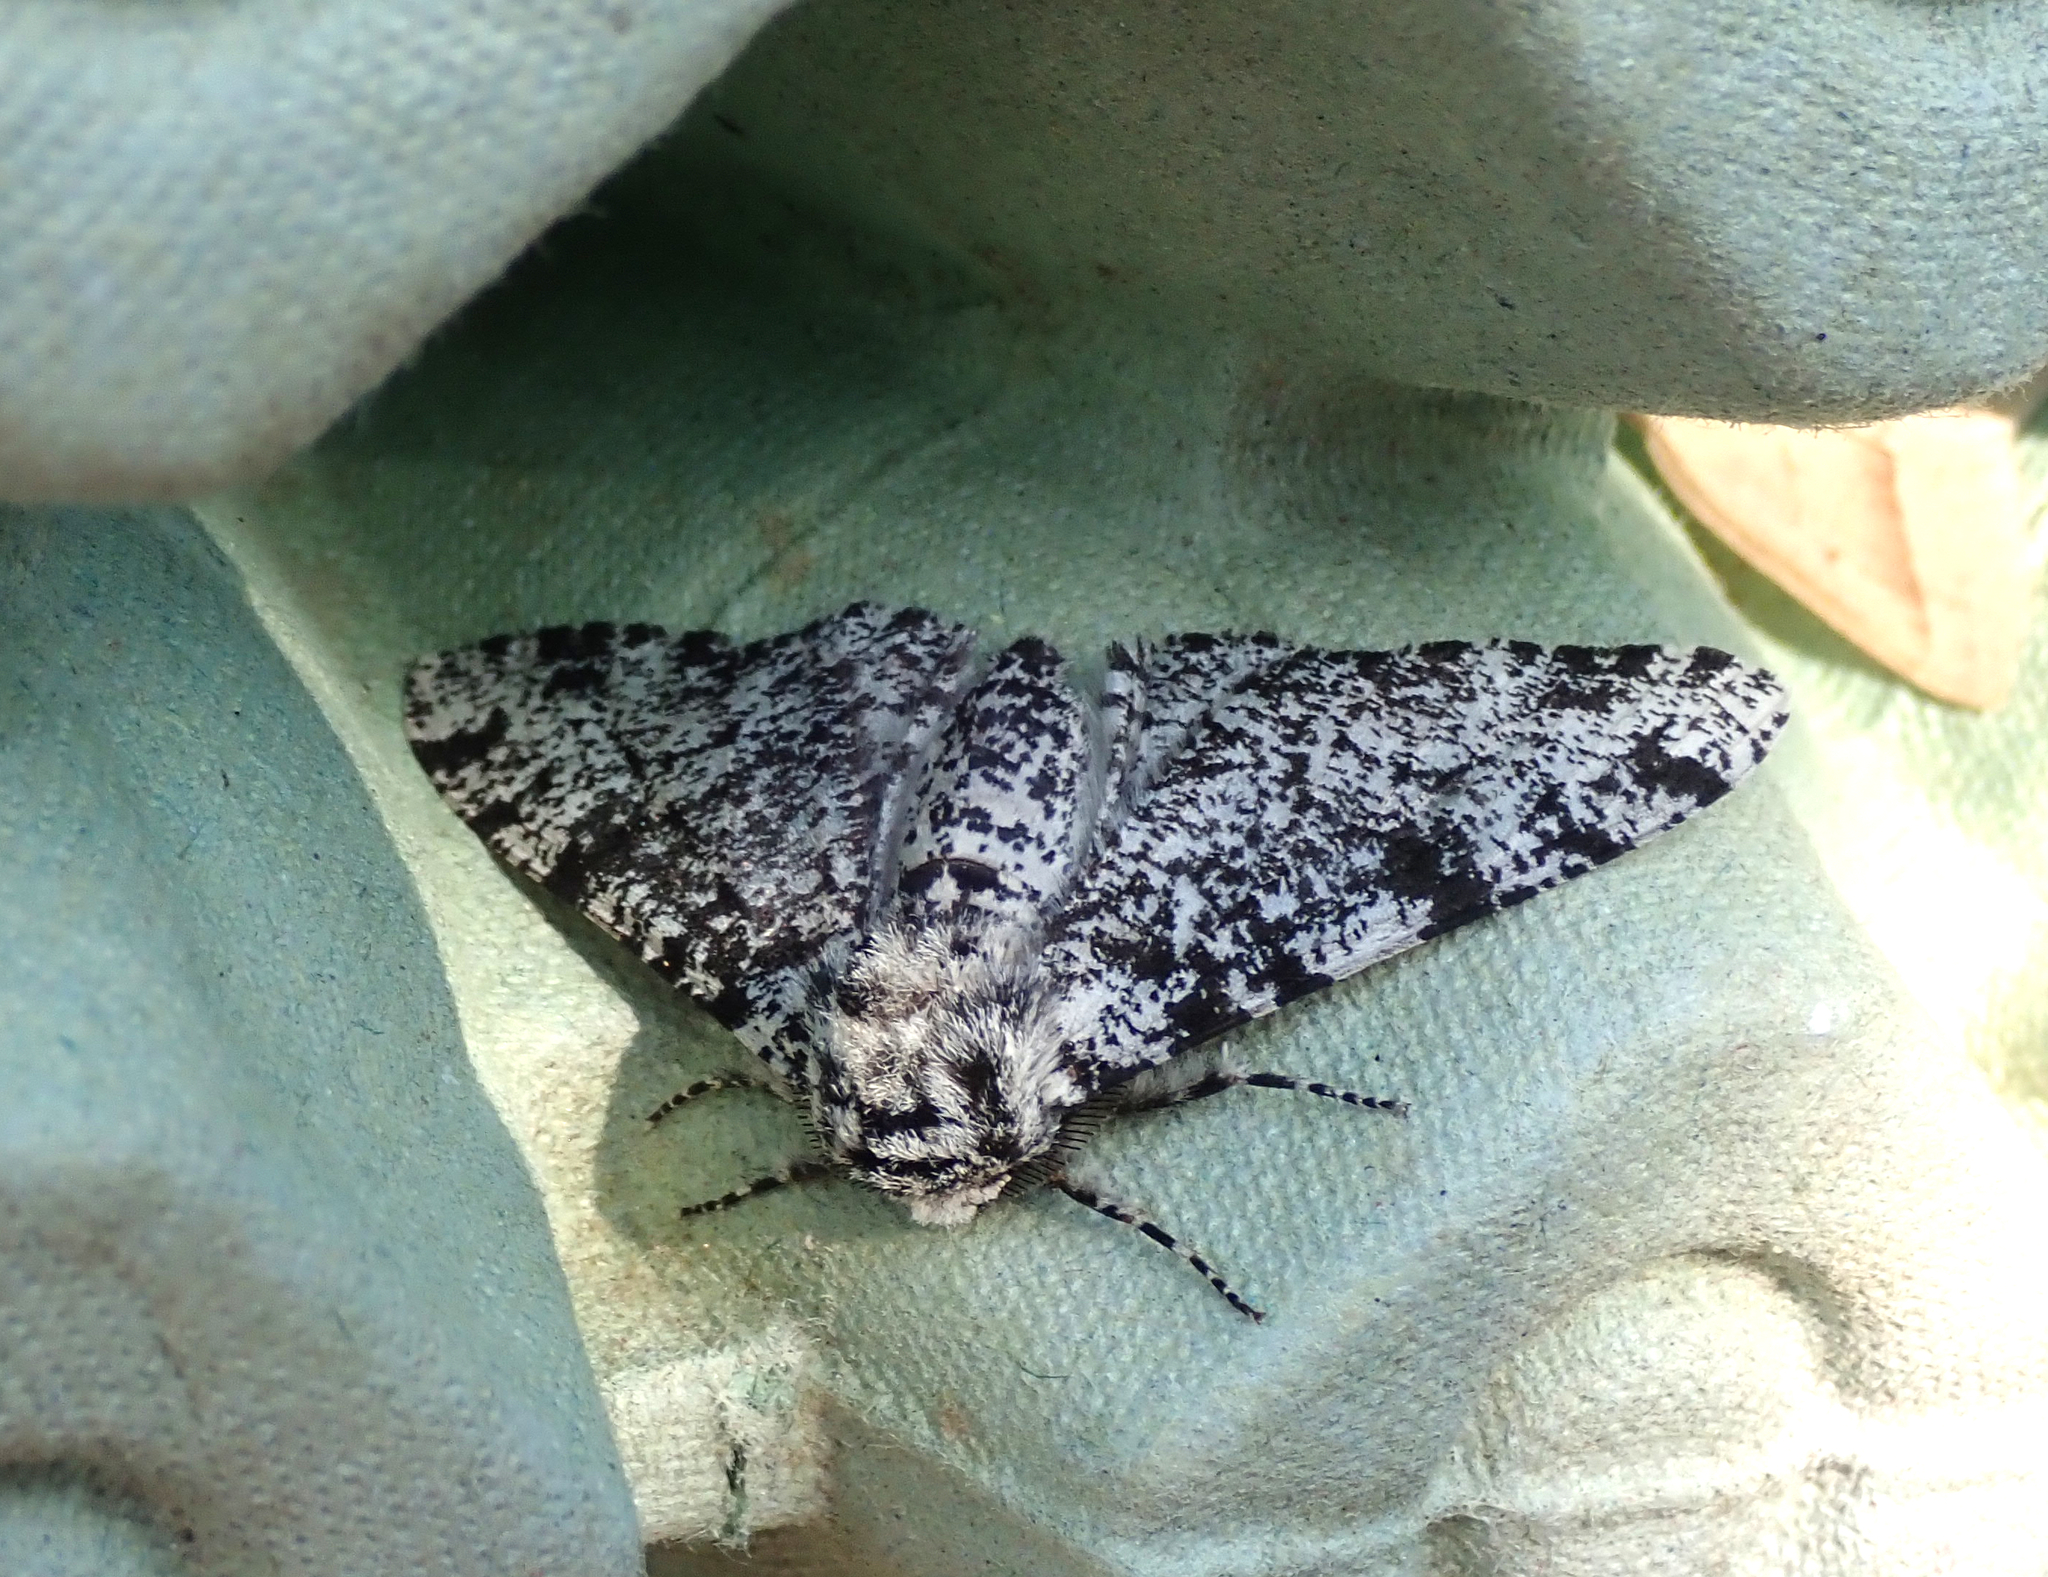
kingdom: Animalia
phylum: Arthropoda
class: Insecta
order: Lepidoptera
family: Geometridae
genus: Biston
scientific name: Biston betularia
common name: Peppered moth
